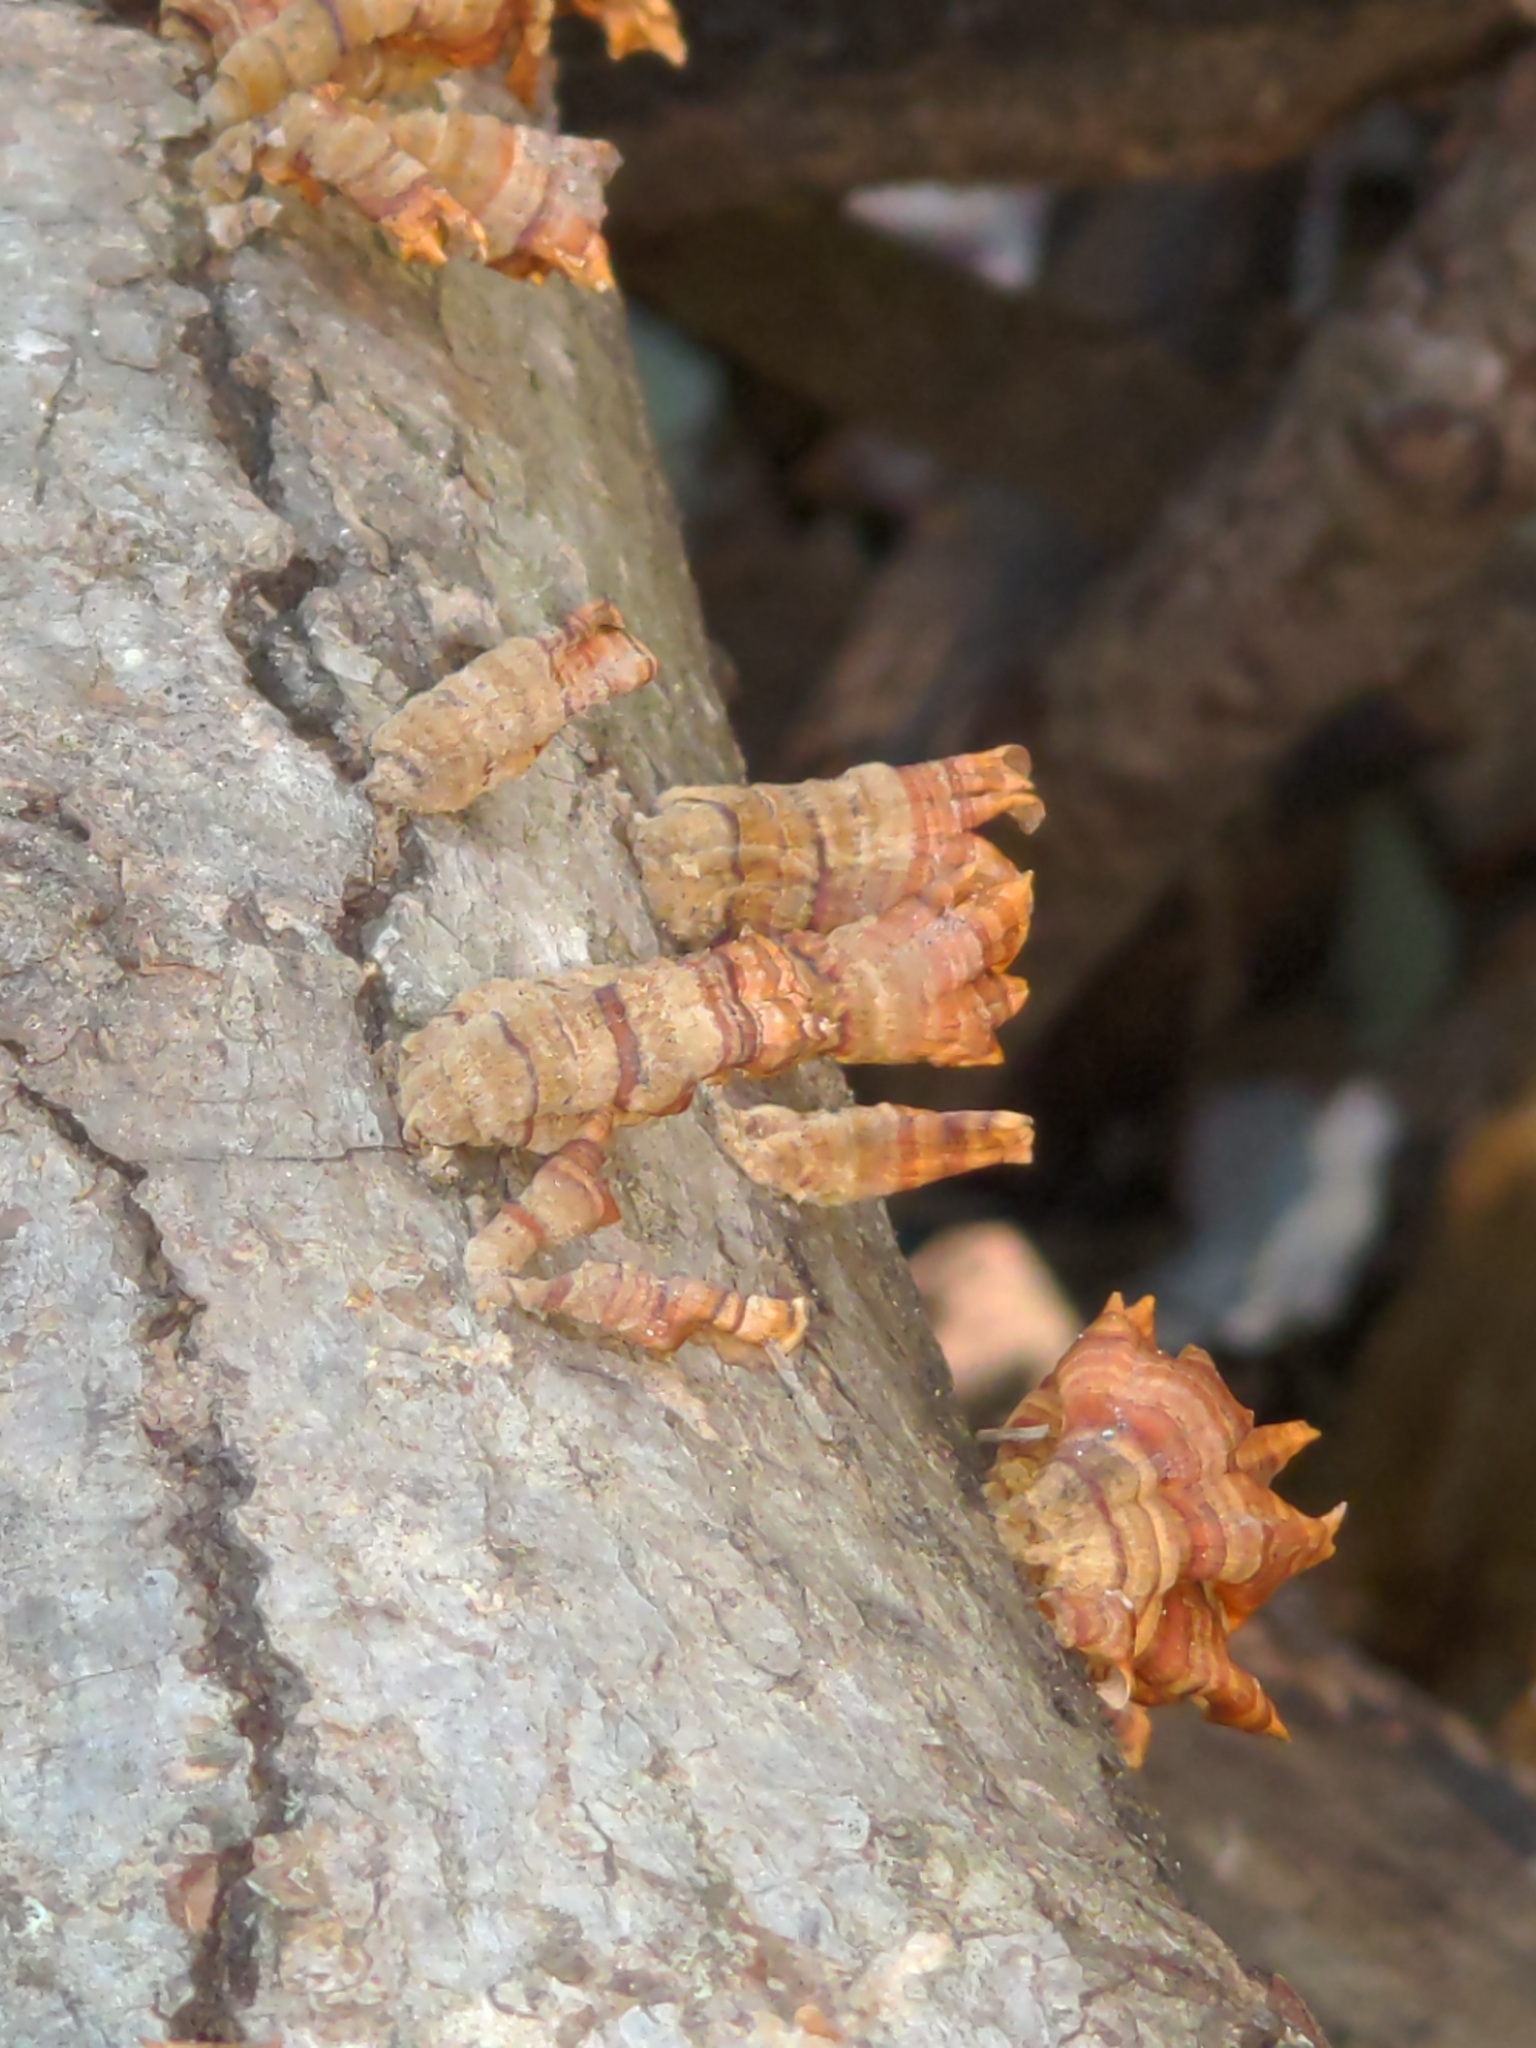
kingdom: Fungi
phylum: Basidiomycota
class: Agaricomycetes
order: Russulales
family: Stereaceae
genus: Stereum
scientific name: Stereum complicatum
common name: Crowded parchment
